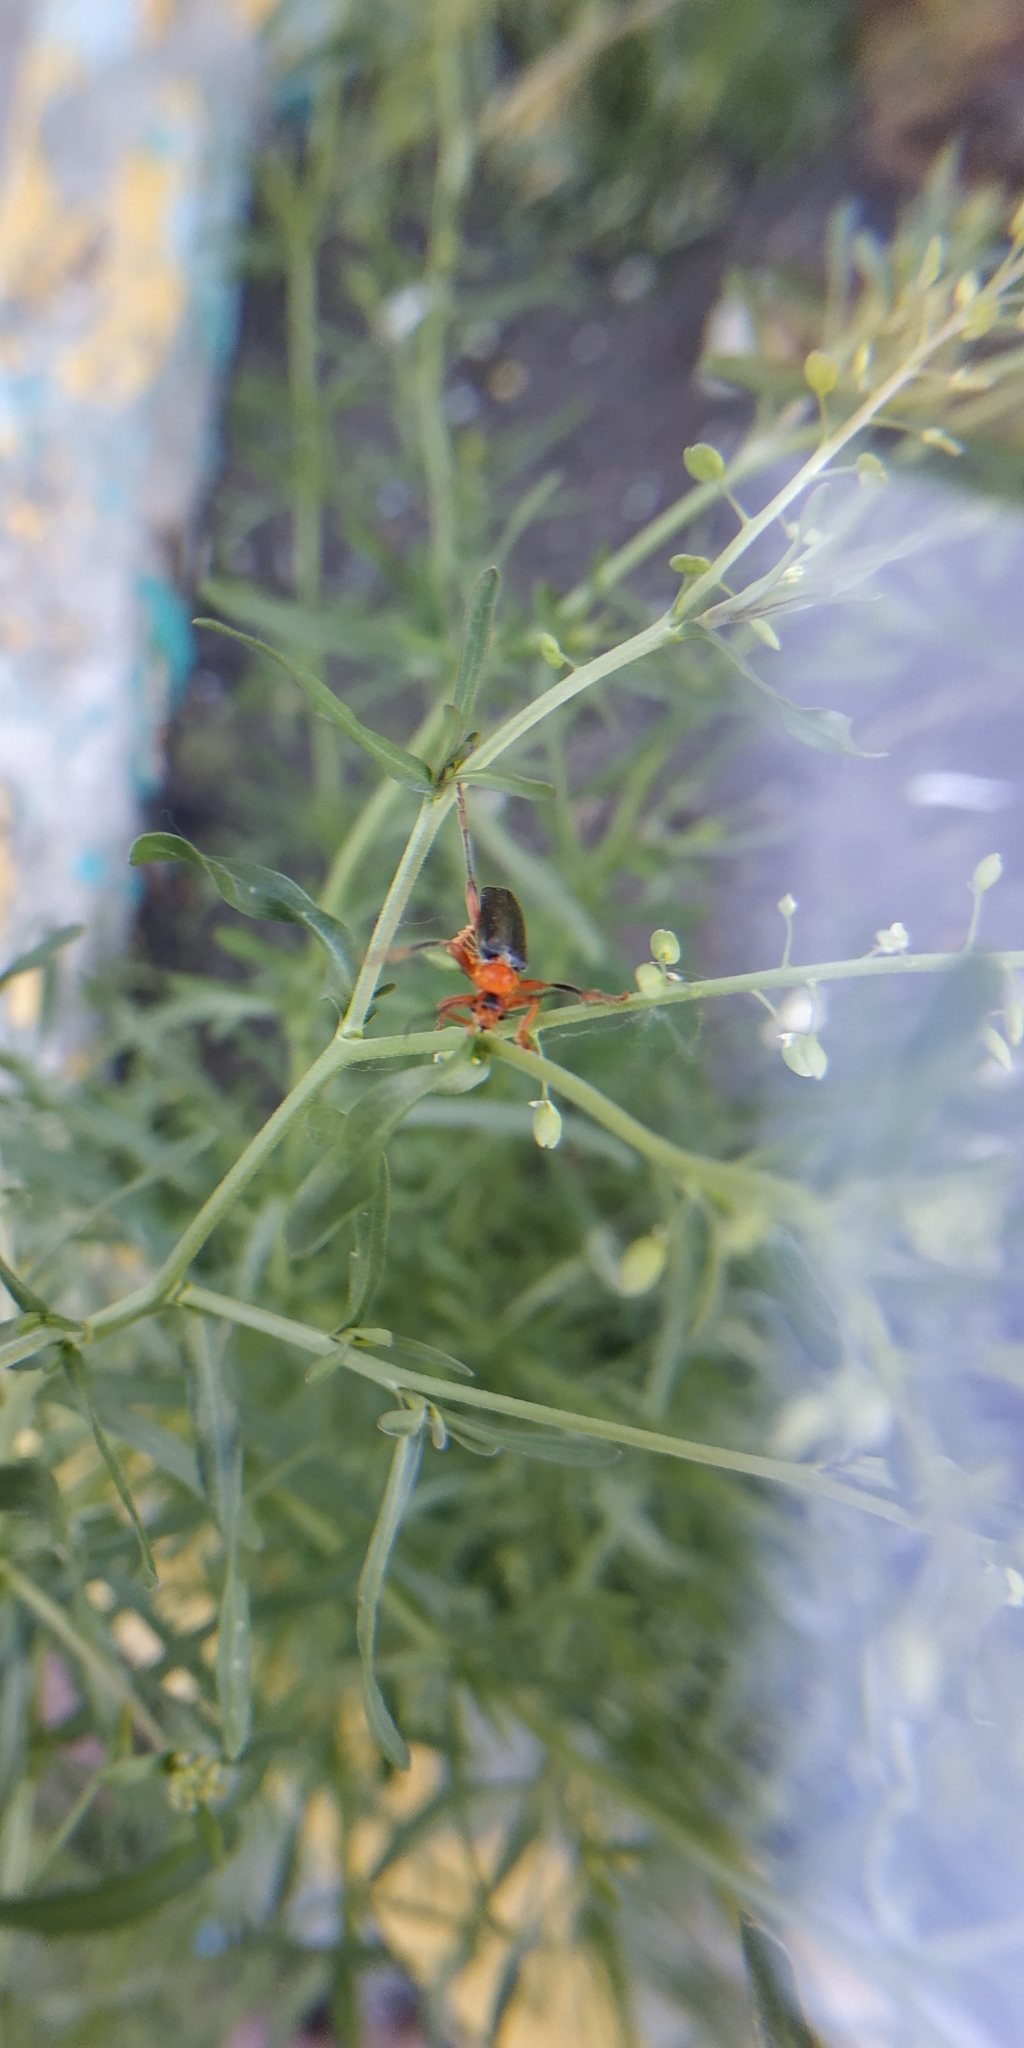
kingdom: Animalia
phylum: Arthropoda
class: Insecta
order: Coleoptera
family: Cantharidae
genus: Cantharis
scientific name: Cantharis livida
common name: Livid soldier beetle
